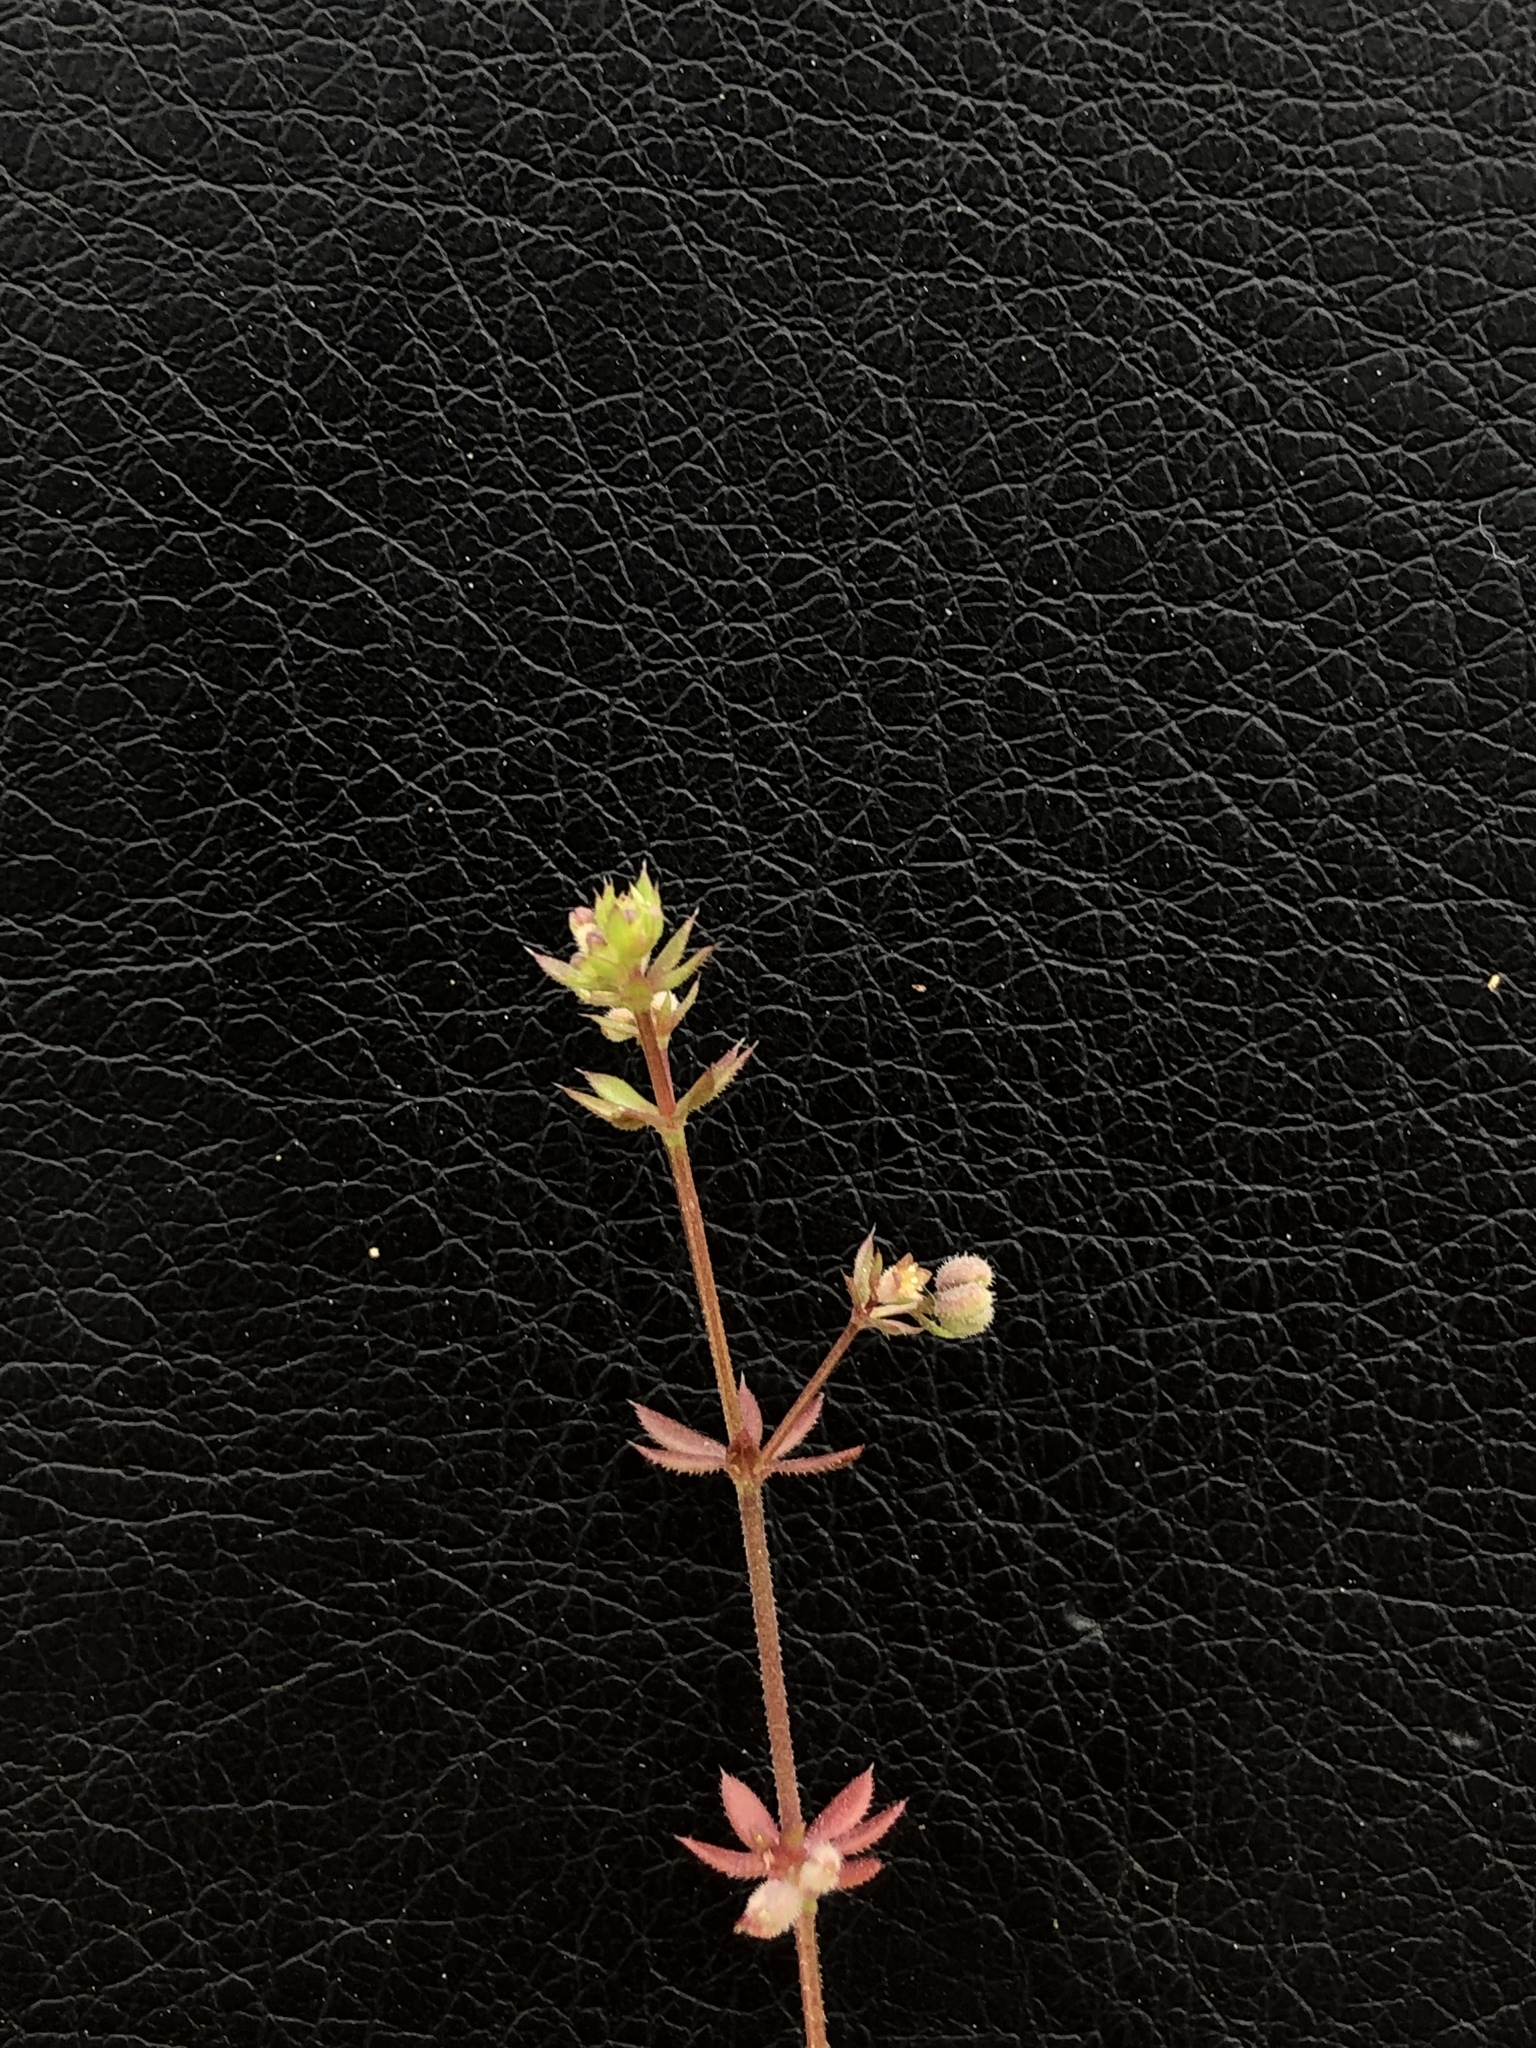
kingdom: Plantae
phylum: Tracheophyta
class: Magnoliopsida
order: Gentianales
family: Rubiaceae
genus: Galium
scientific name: Galium parisiense
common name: Wall bedstraw
